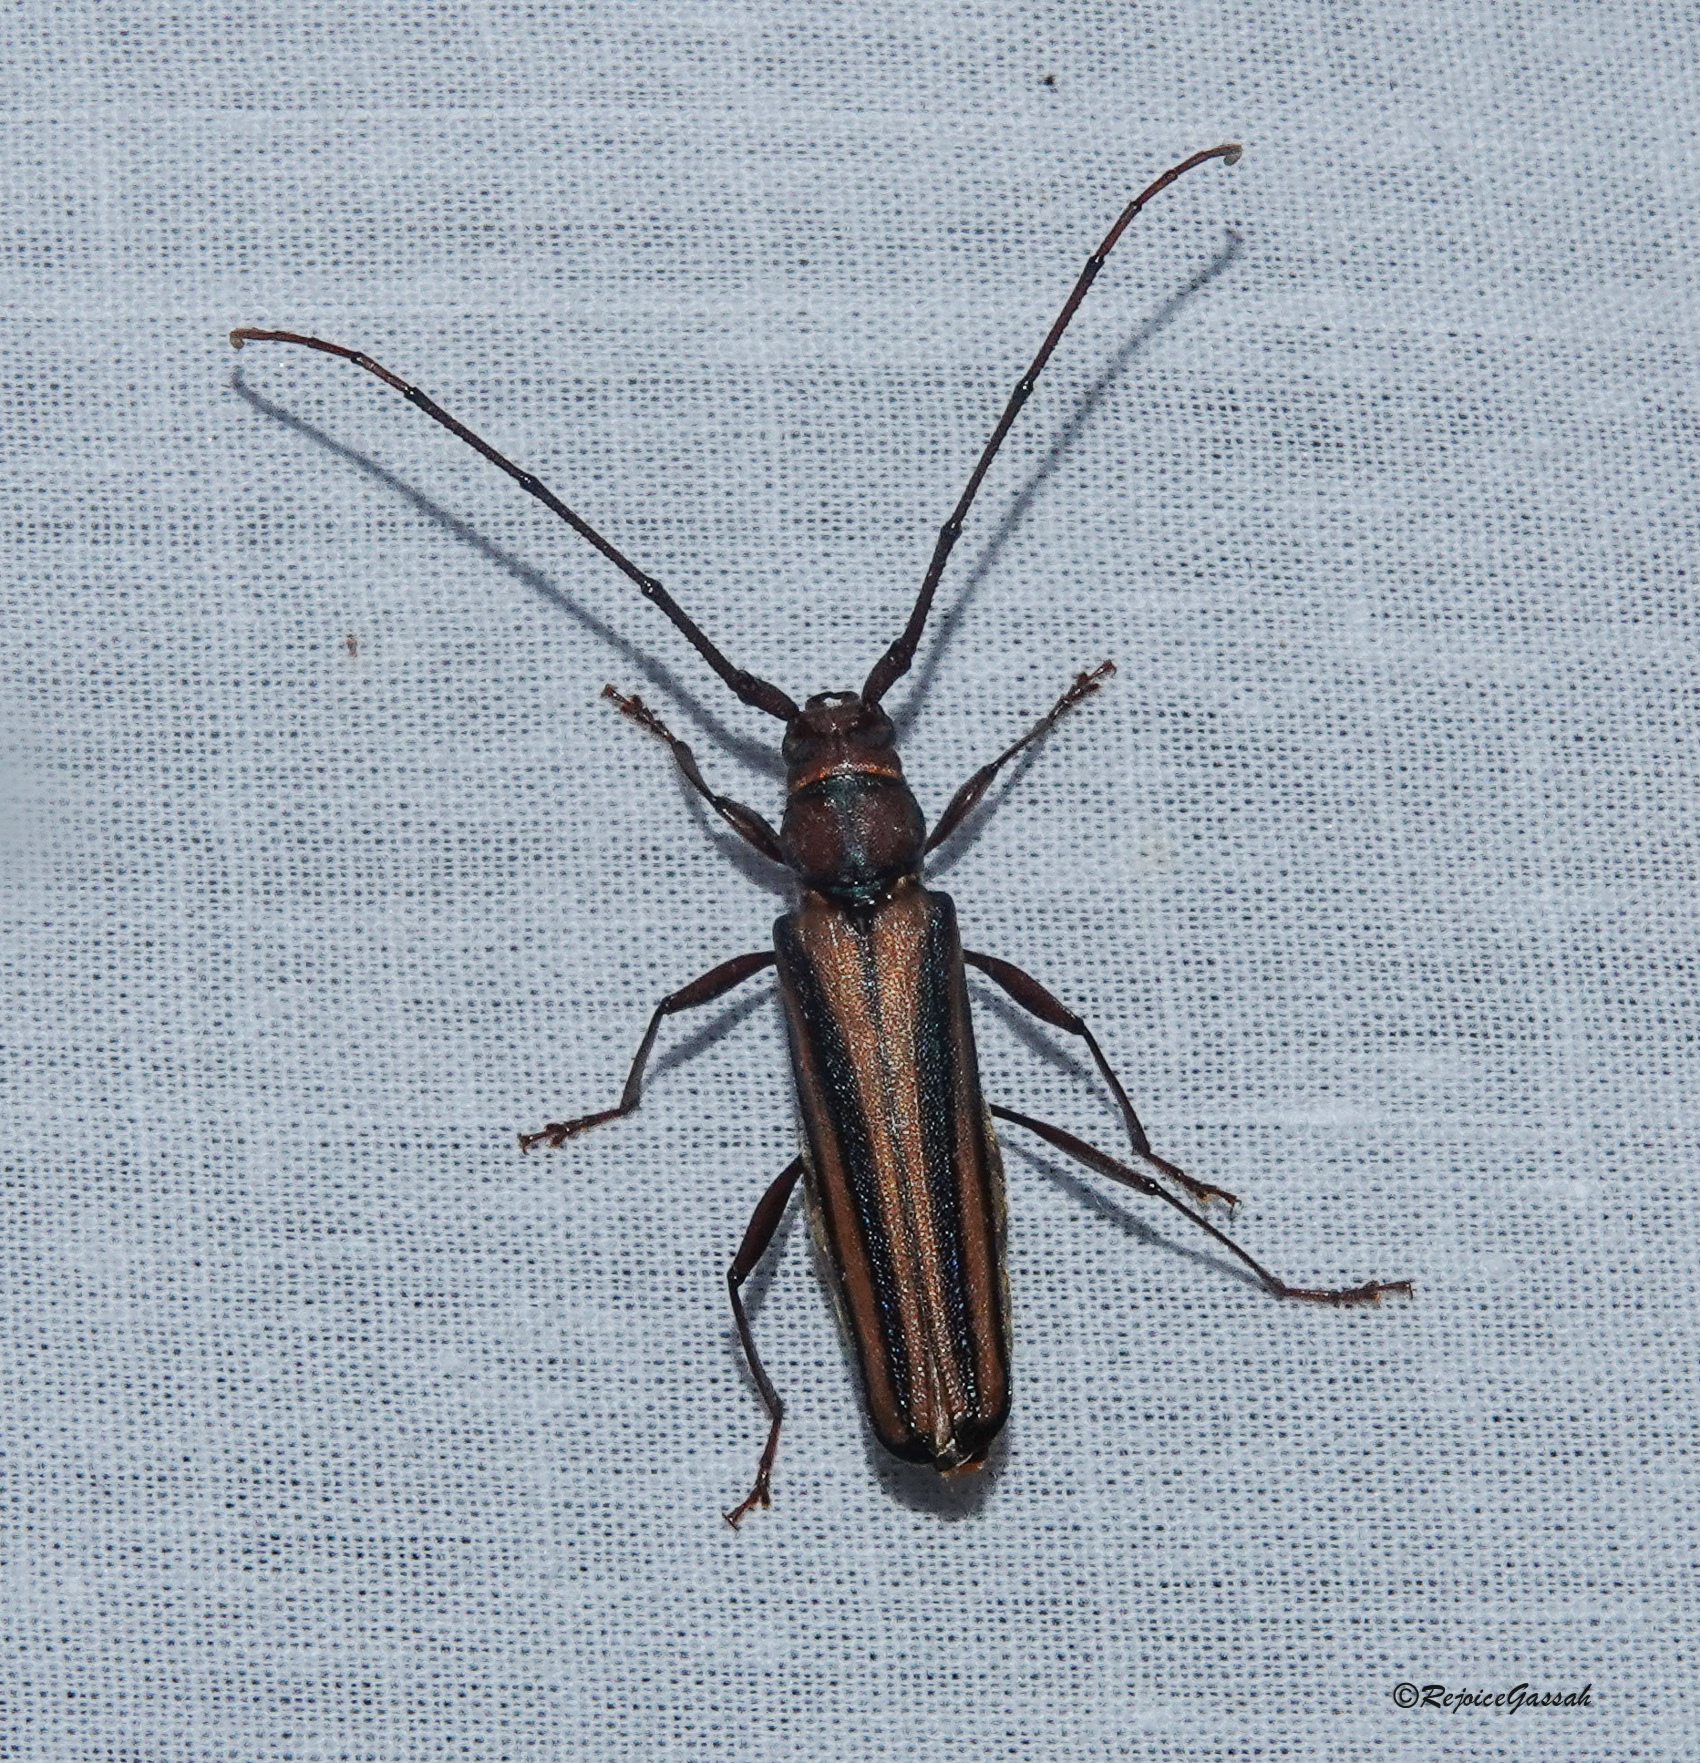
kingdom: Animalia
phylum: Arthropoda
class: Insecta
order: Coleoptera
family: Cerambycidae
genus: Xystrocera
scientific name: Xystrocera globosa
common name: Peach-tree longhorn
